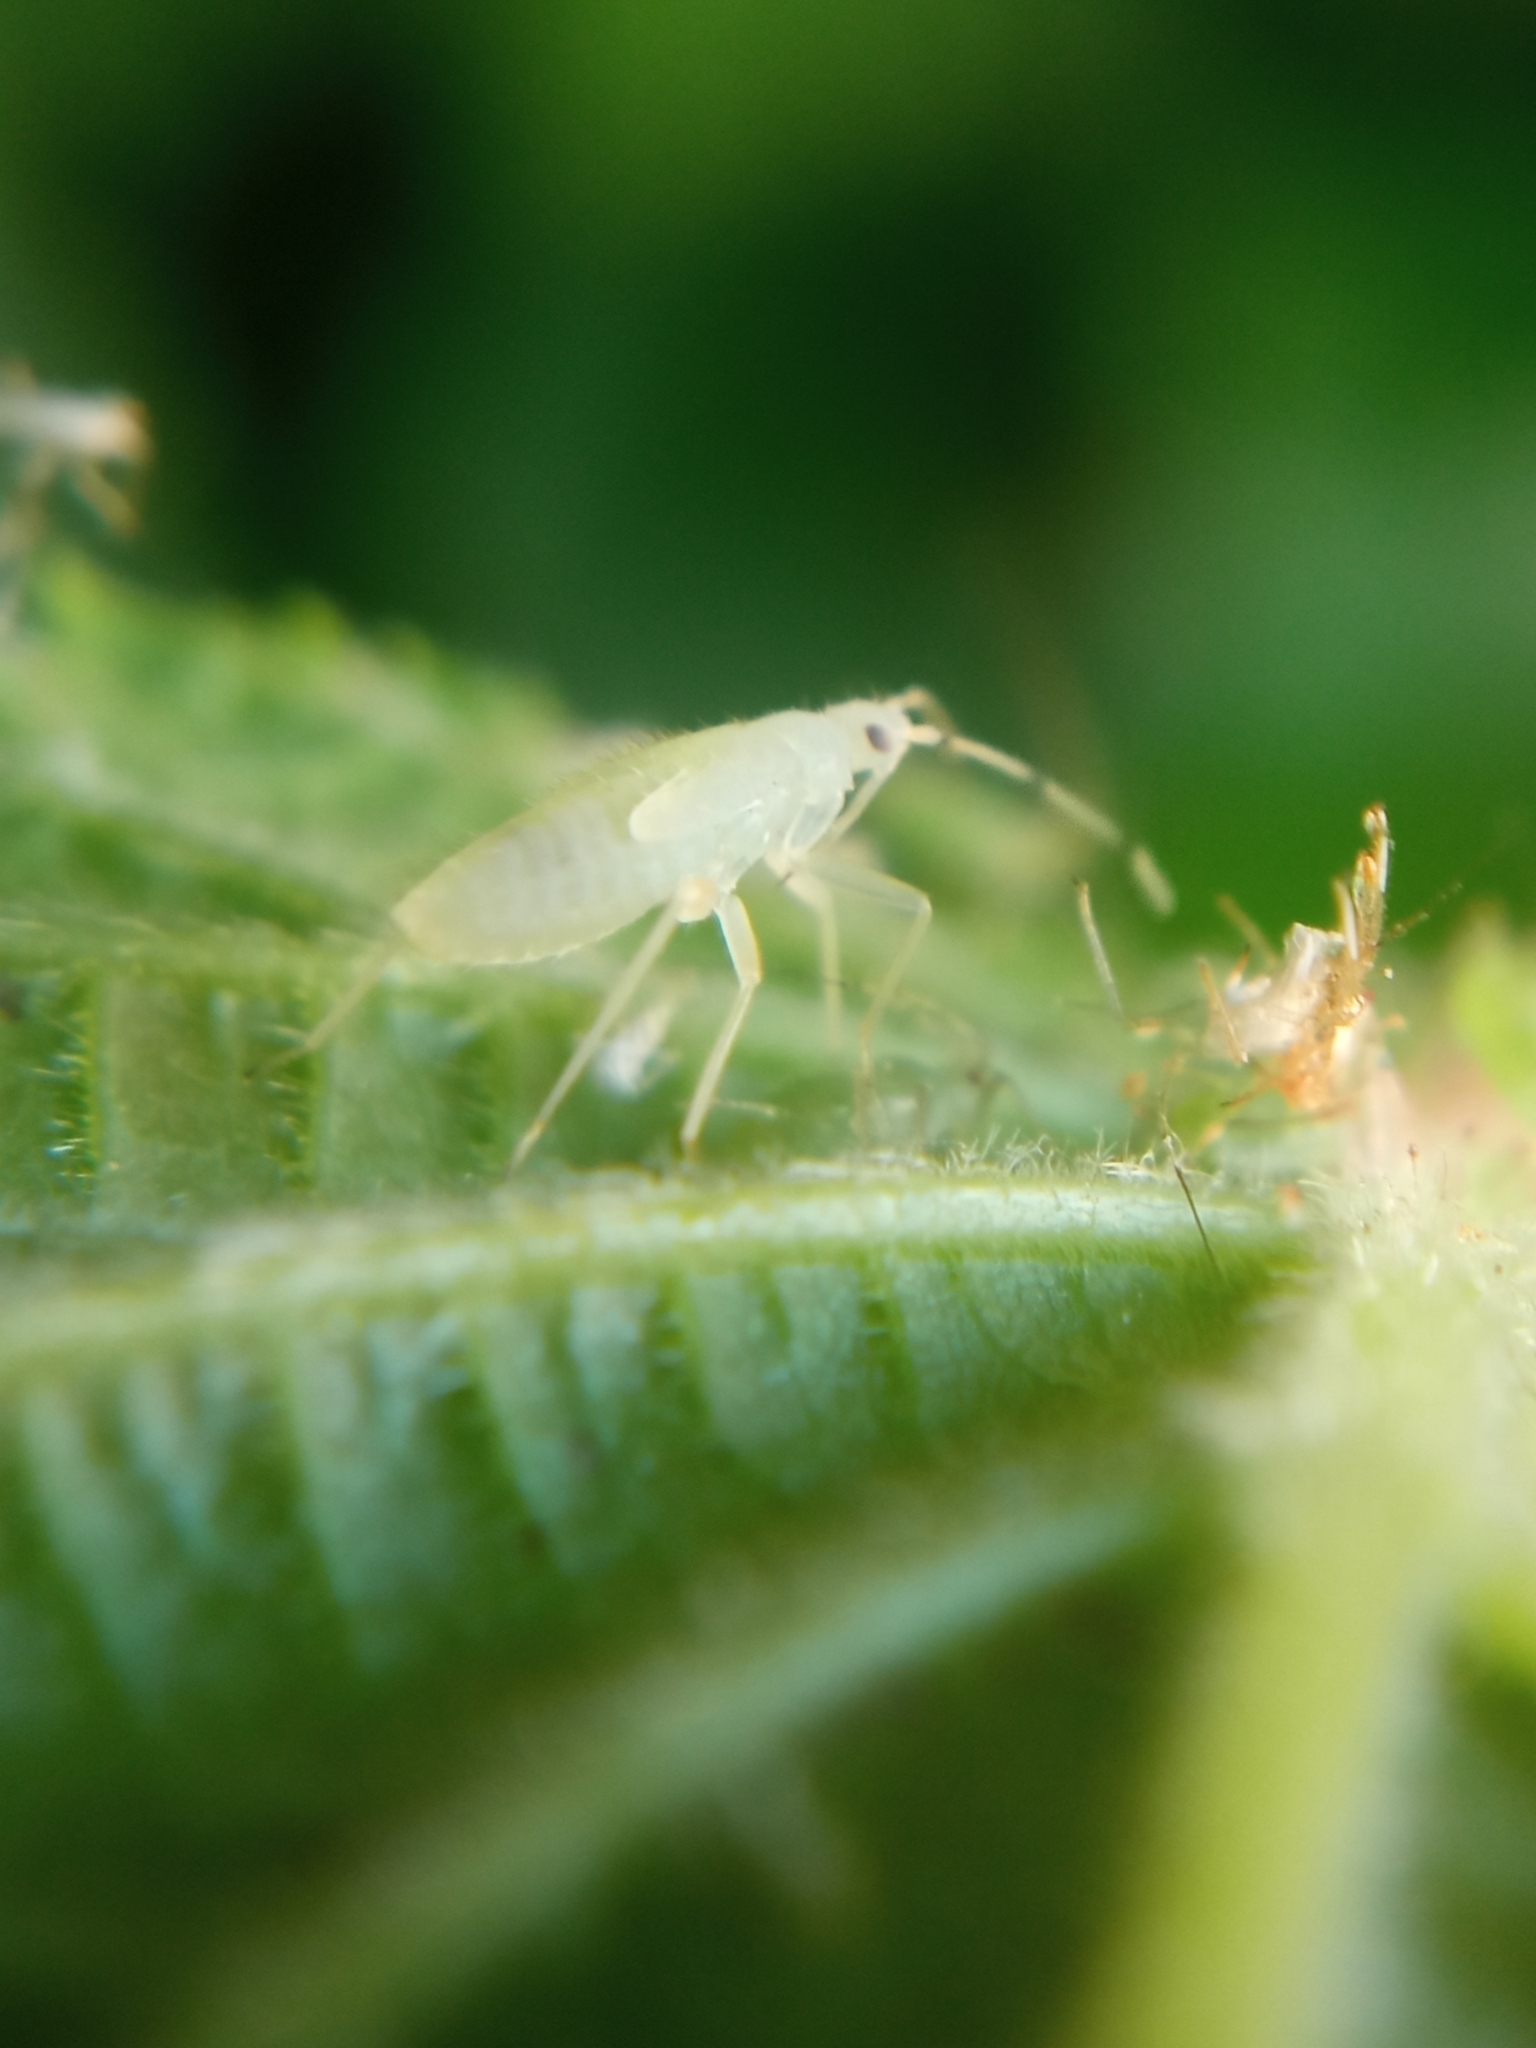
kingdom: Animalia
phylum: Arthropoda
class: Insecta
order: Hemiptera
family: Miridae
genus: Phylus
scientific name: Phylus coryli
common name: Plant bug
